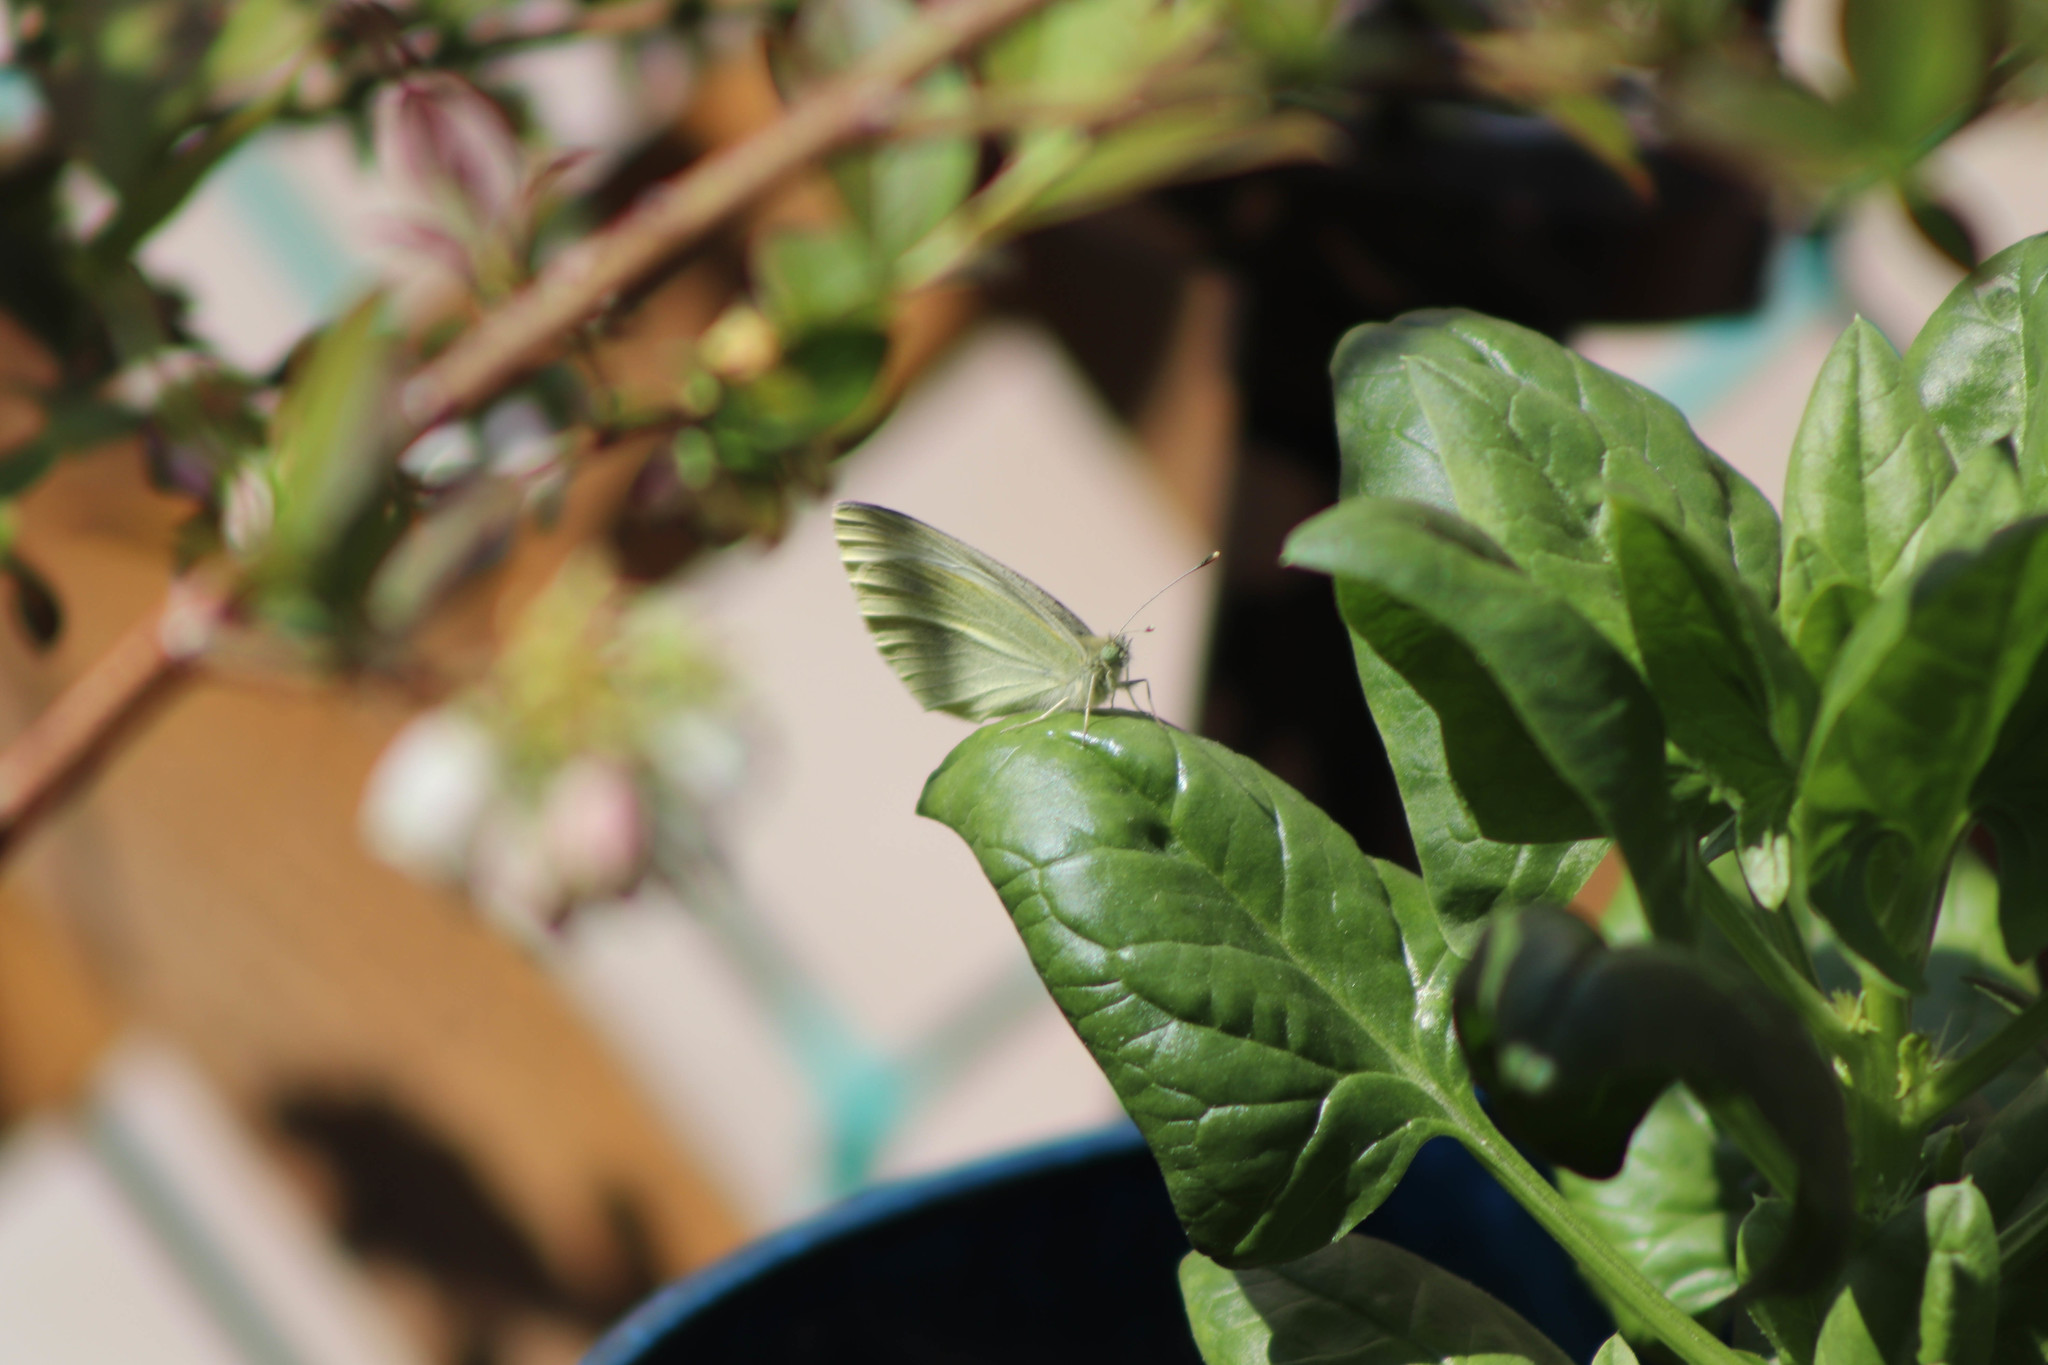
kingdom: Animalia
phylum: Arthropoda
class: Insecta
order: Lepidoptera
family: Pieridae
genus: Pieris
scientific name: Pieris rapae
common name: Small white
